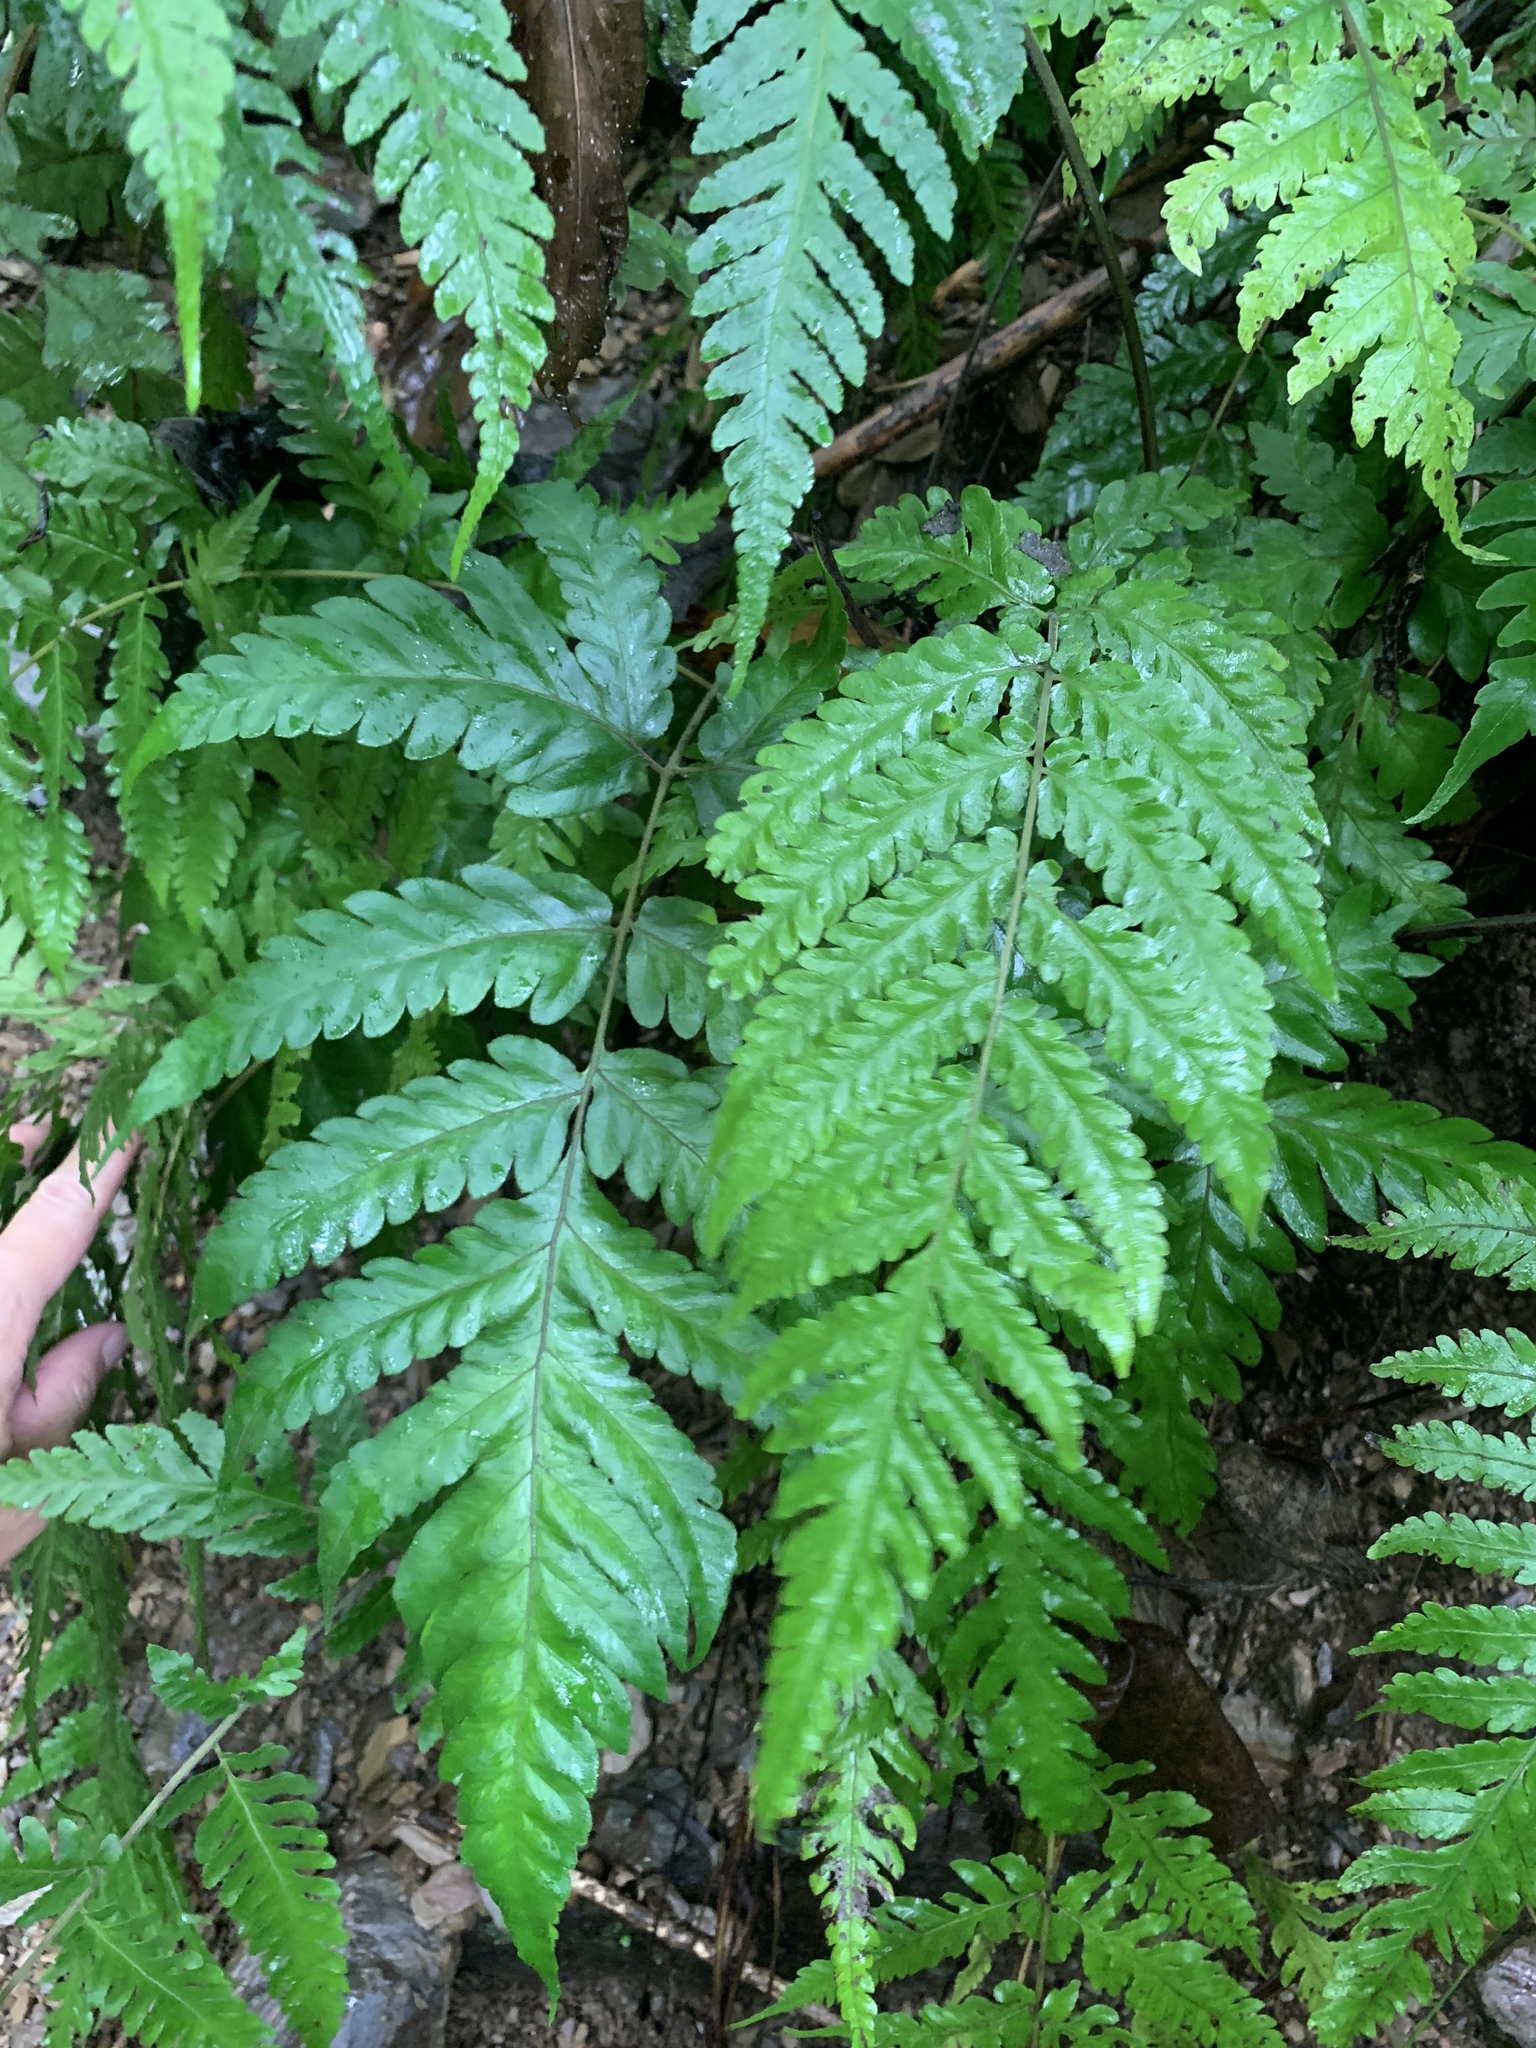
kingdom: Plantae
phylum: Tracheophyta
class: Polypodiopsida
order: Polypodiales
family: Tectariaceae
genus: Tectaria
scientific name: Tectaria fuscipes
